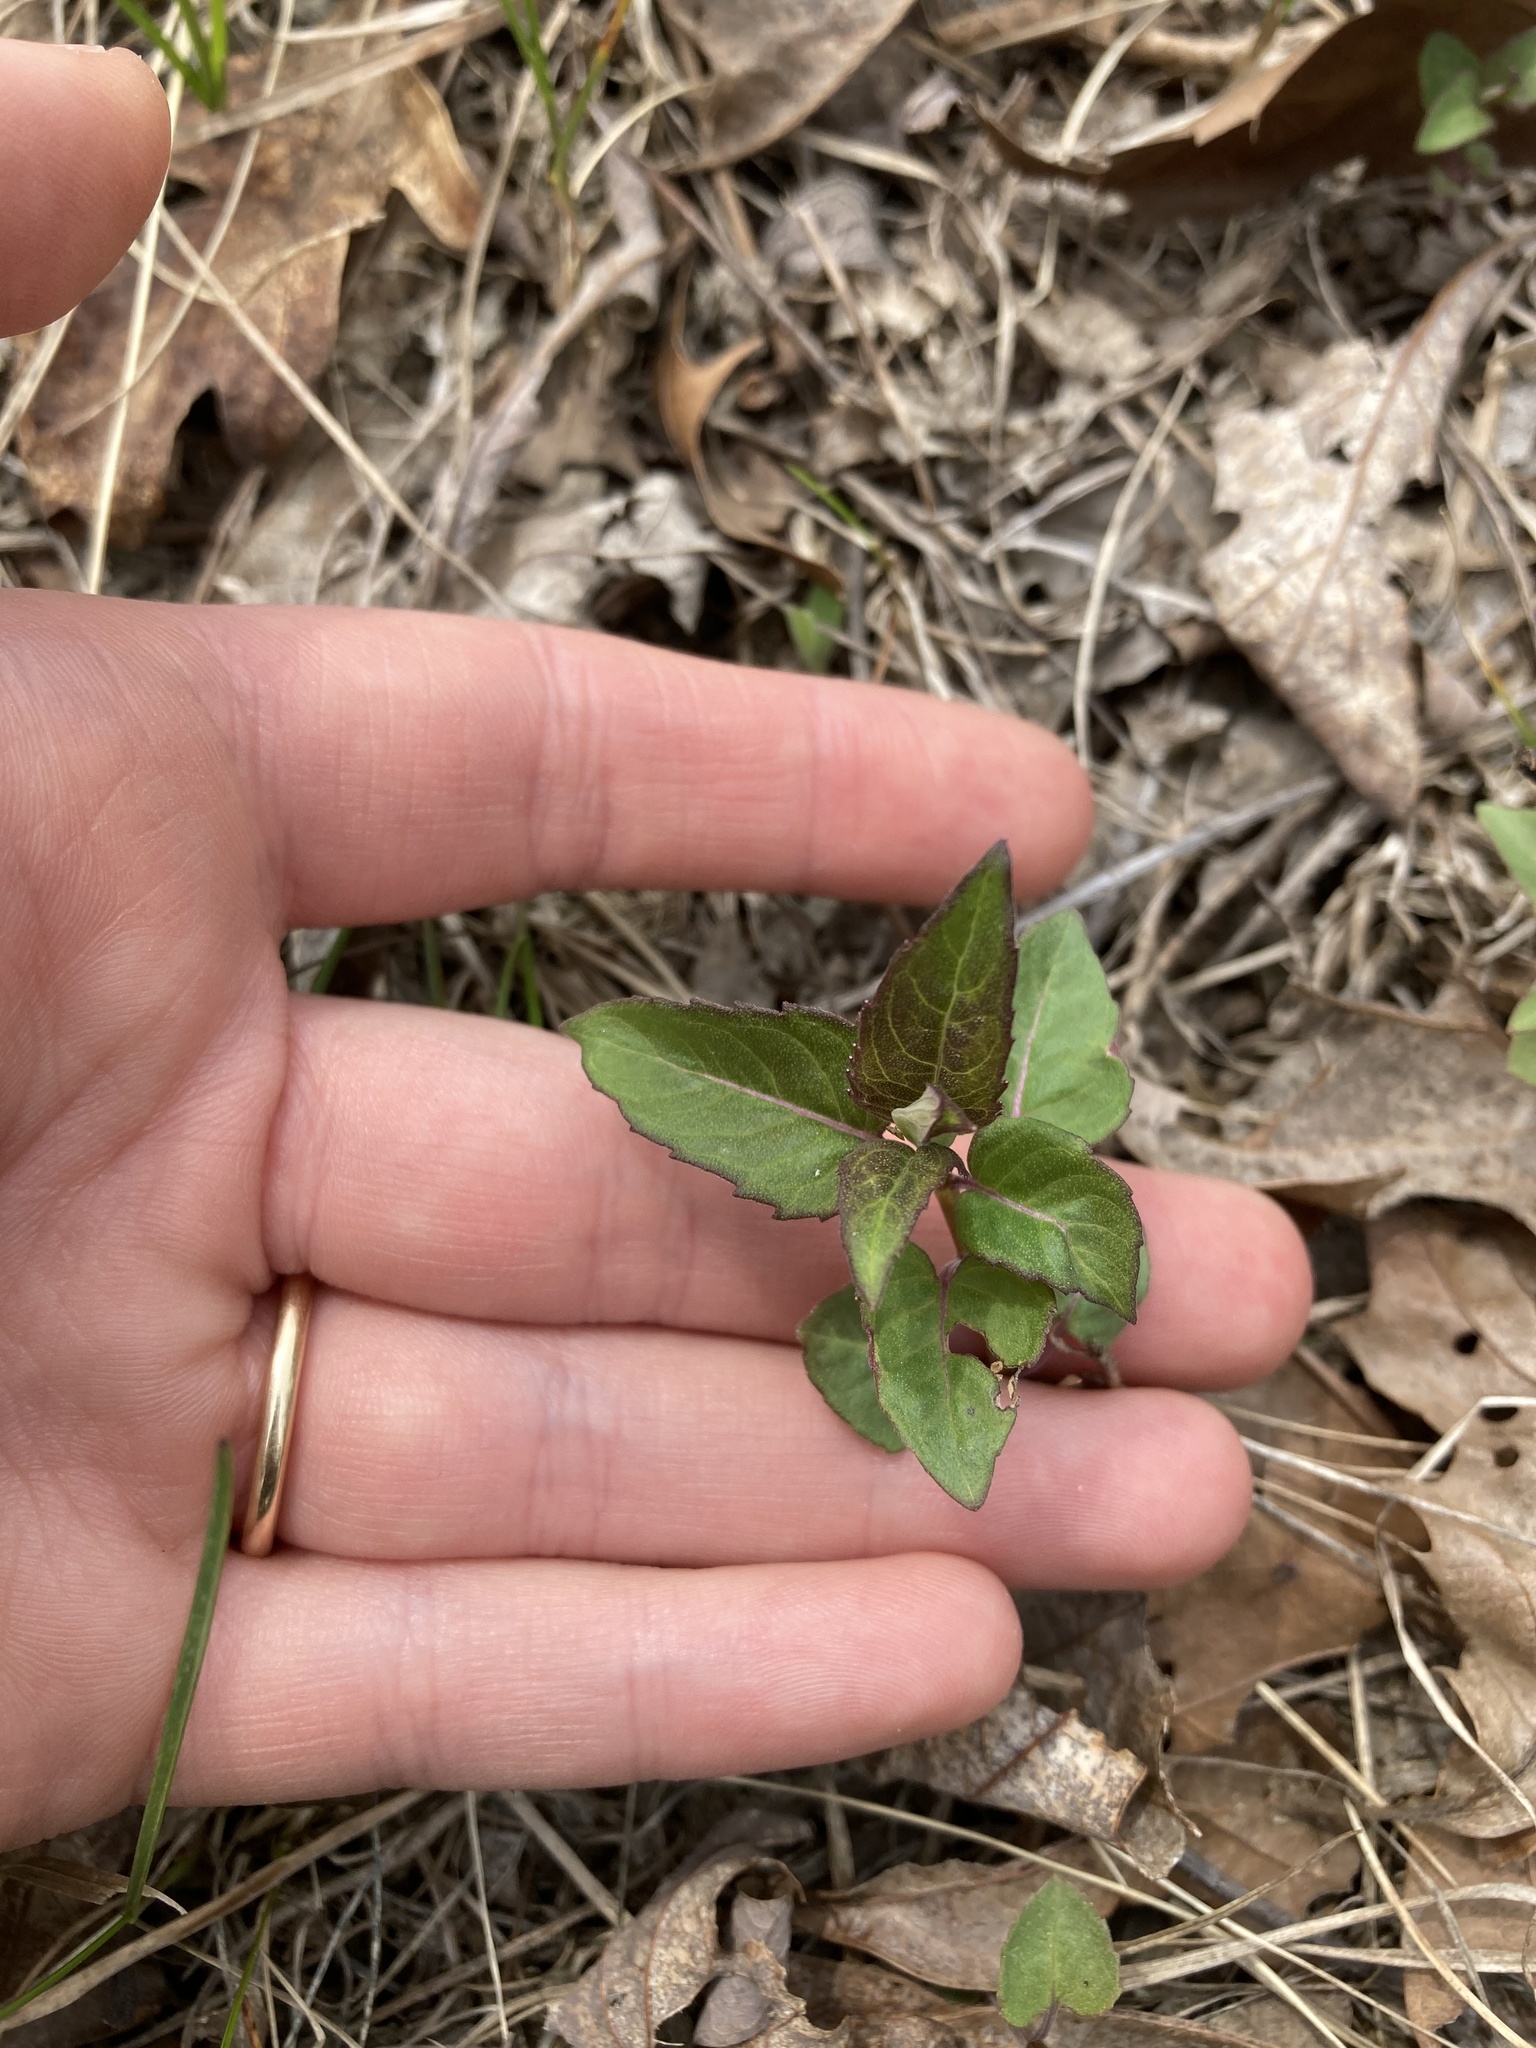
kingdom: Plantae
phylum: Tracheophyta
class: Magnoliopsida
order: Lamiales
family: Lamiaceae
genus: Monarda
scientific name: Monarda fistulosa
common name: Purple beebalm
